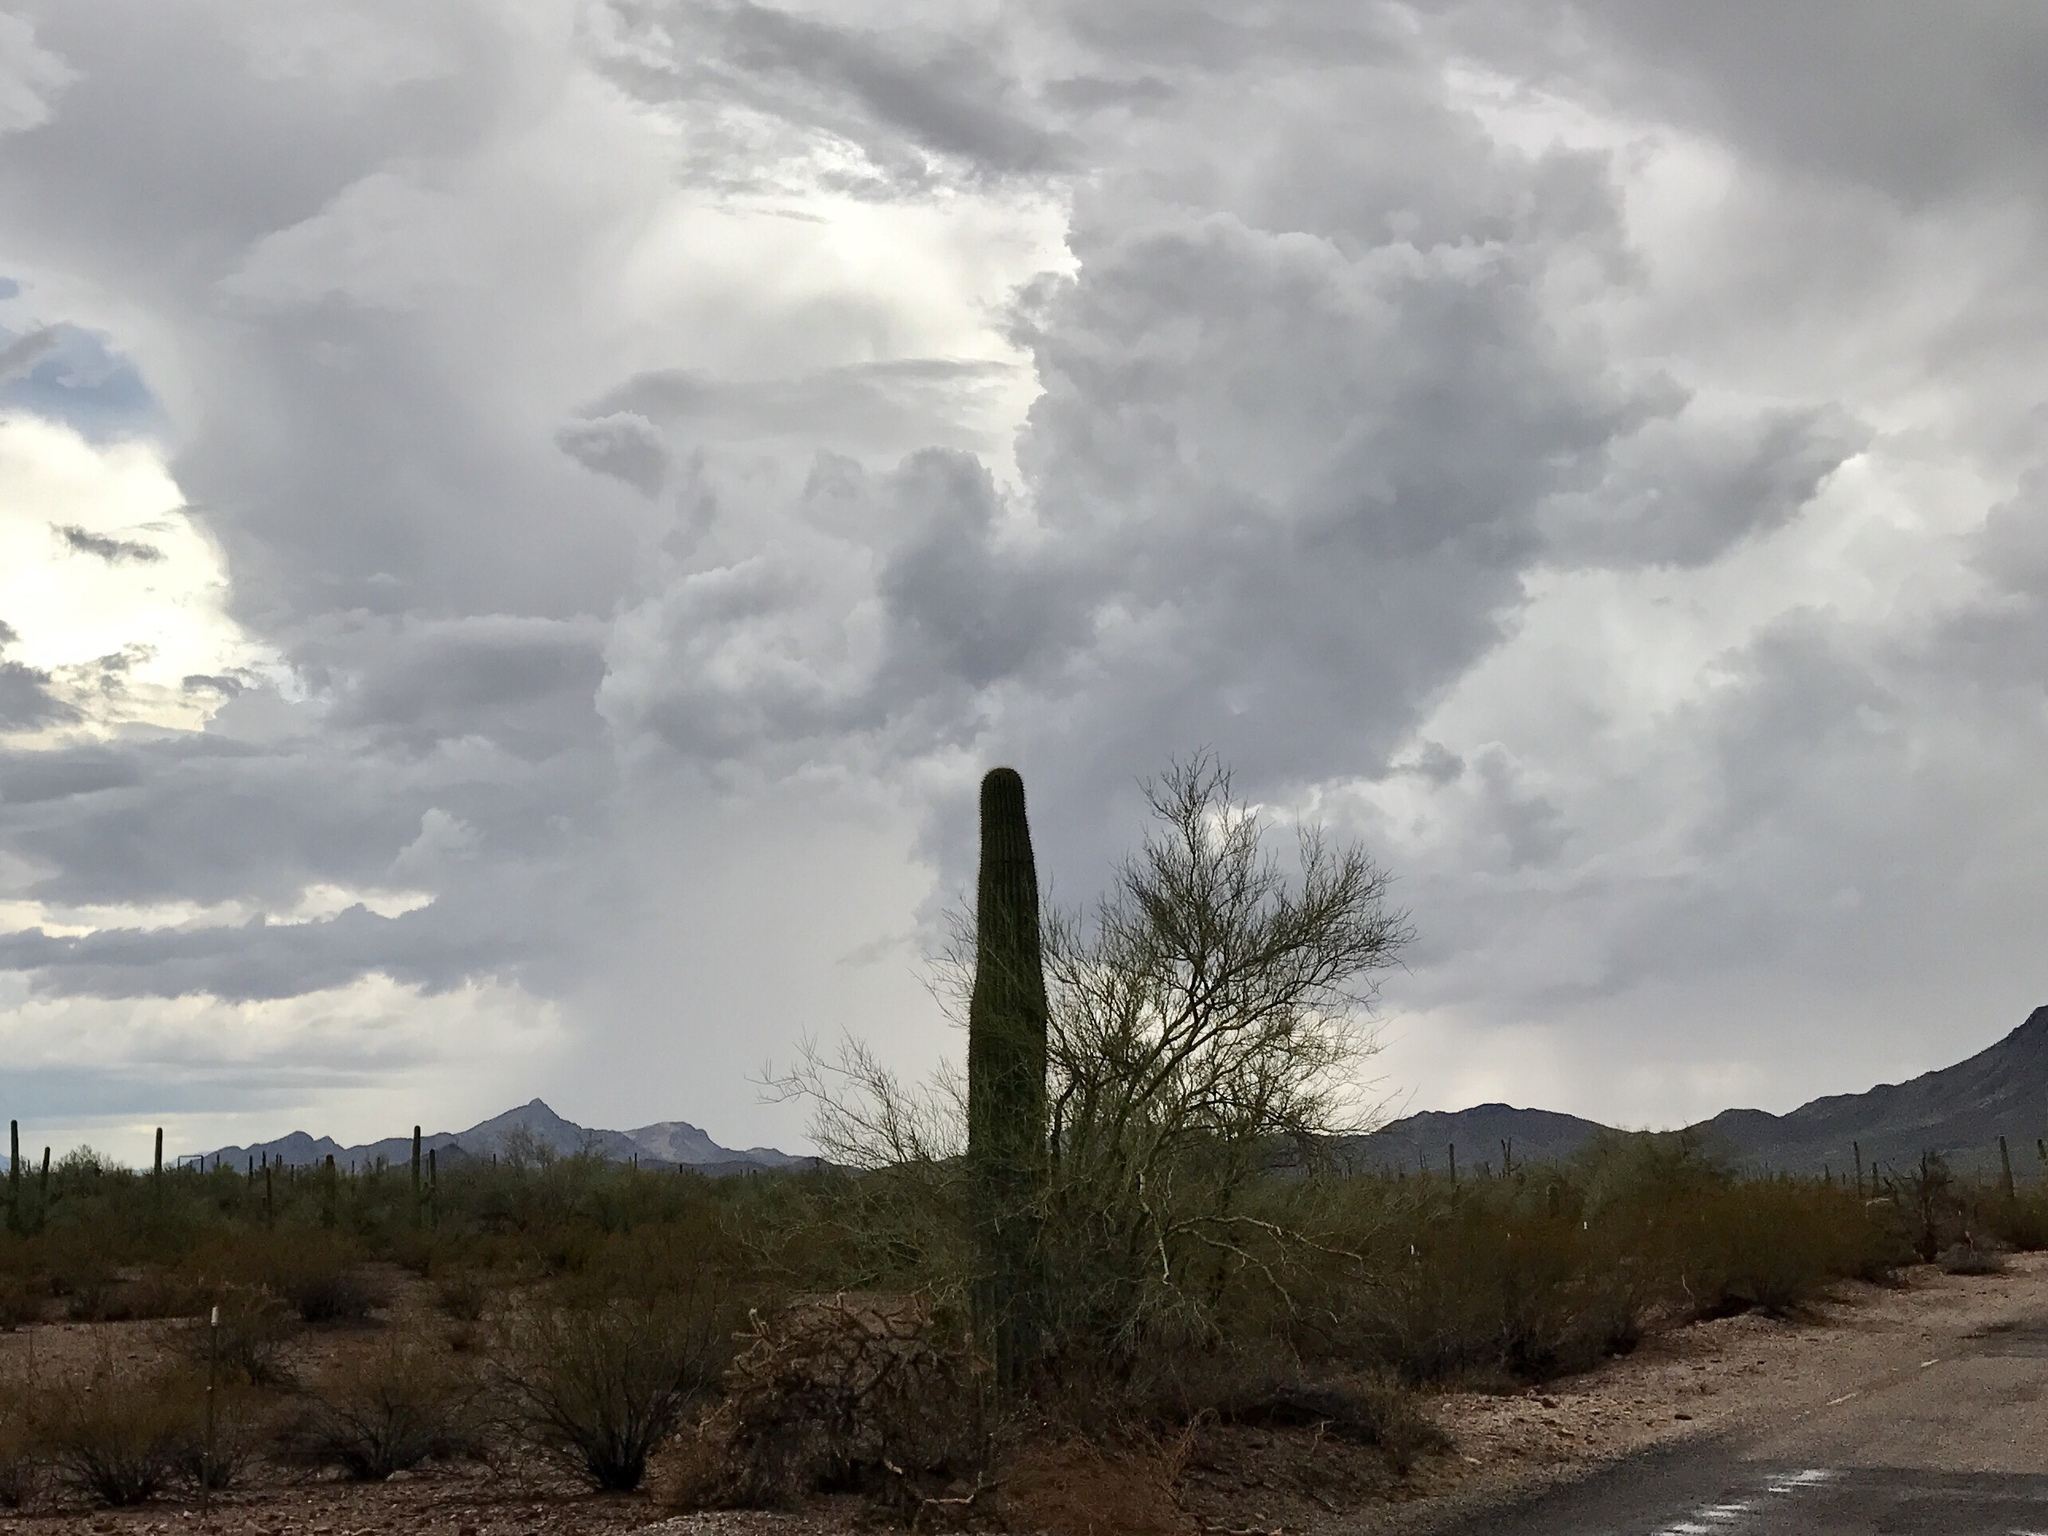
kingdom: Plantae
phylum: Tracheophyta
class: Magnoliopsida
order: Caryophyllales
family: Cactaceae
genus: Carnegiea
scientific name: Carnegiea gigantea
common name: Saguaro
